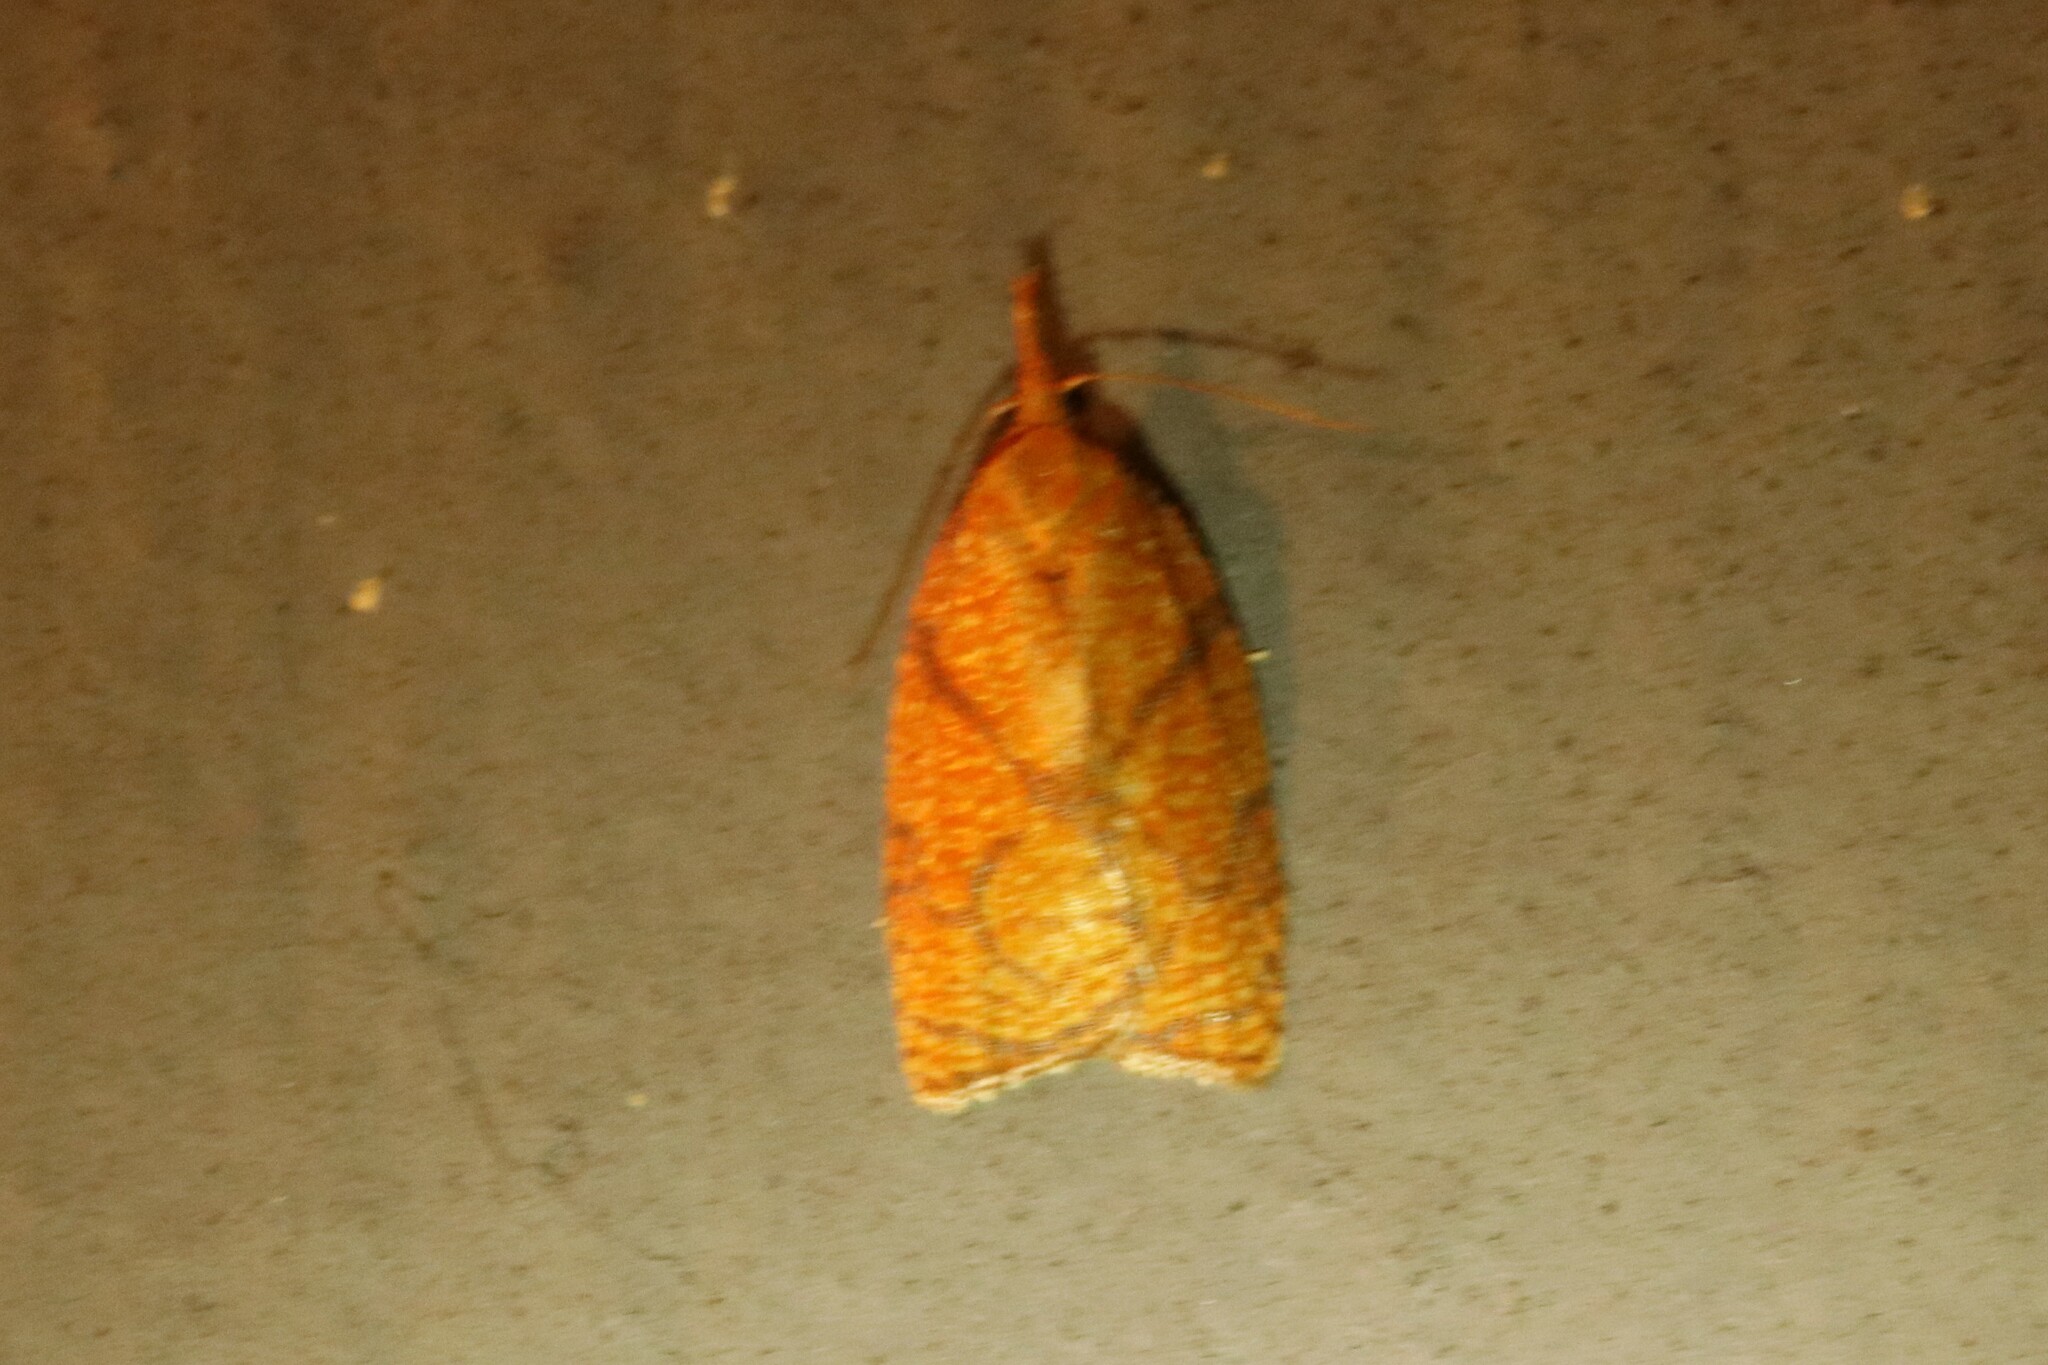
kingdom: Animalia
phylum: Arthropoda
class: Insecta
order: Lepidoptera
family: Tortricidae
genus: Cenopis
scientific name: Cenopis reticulatana
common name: Reticulated fruitworm moth
